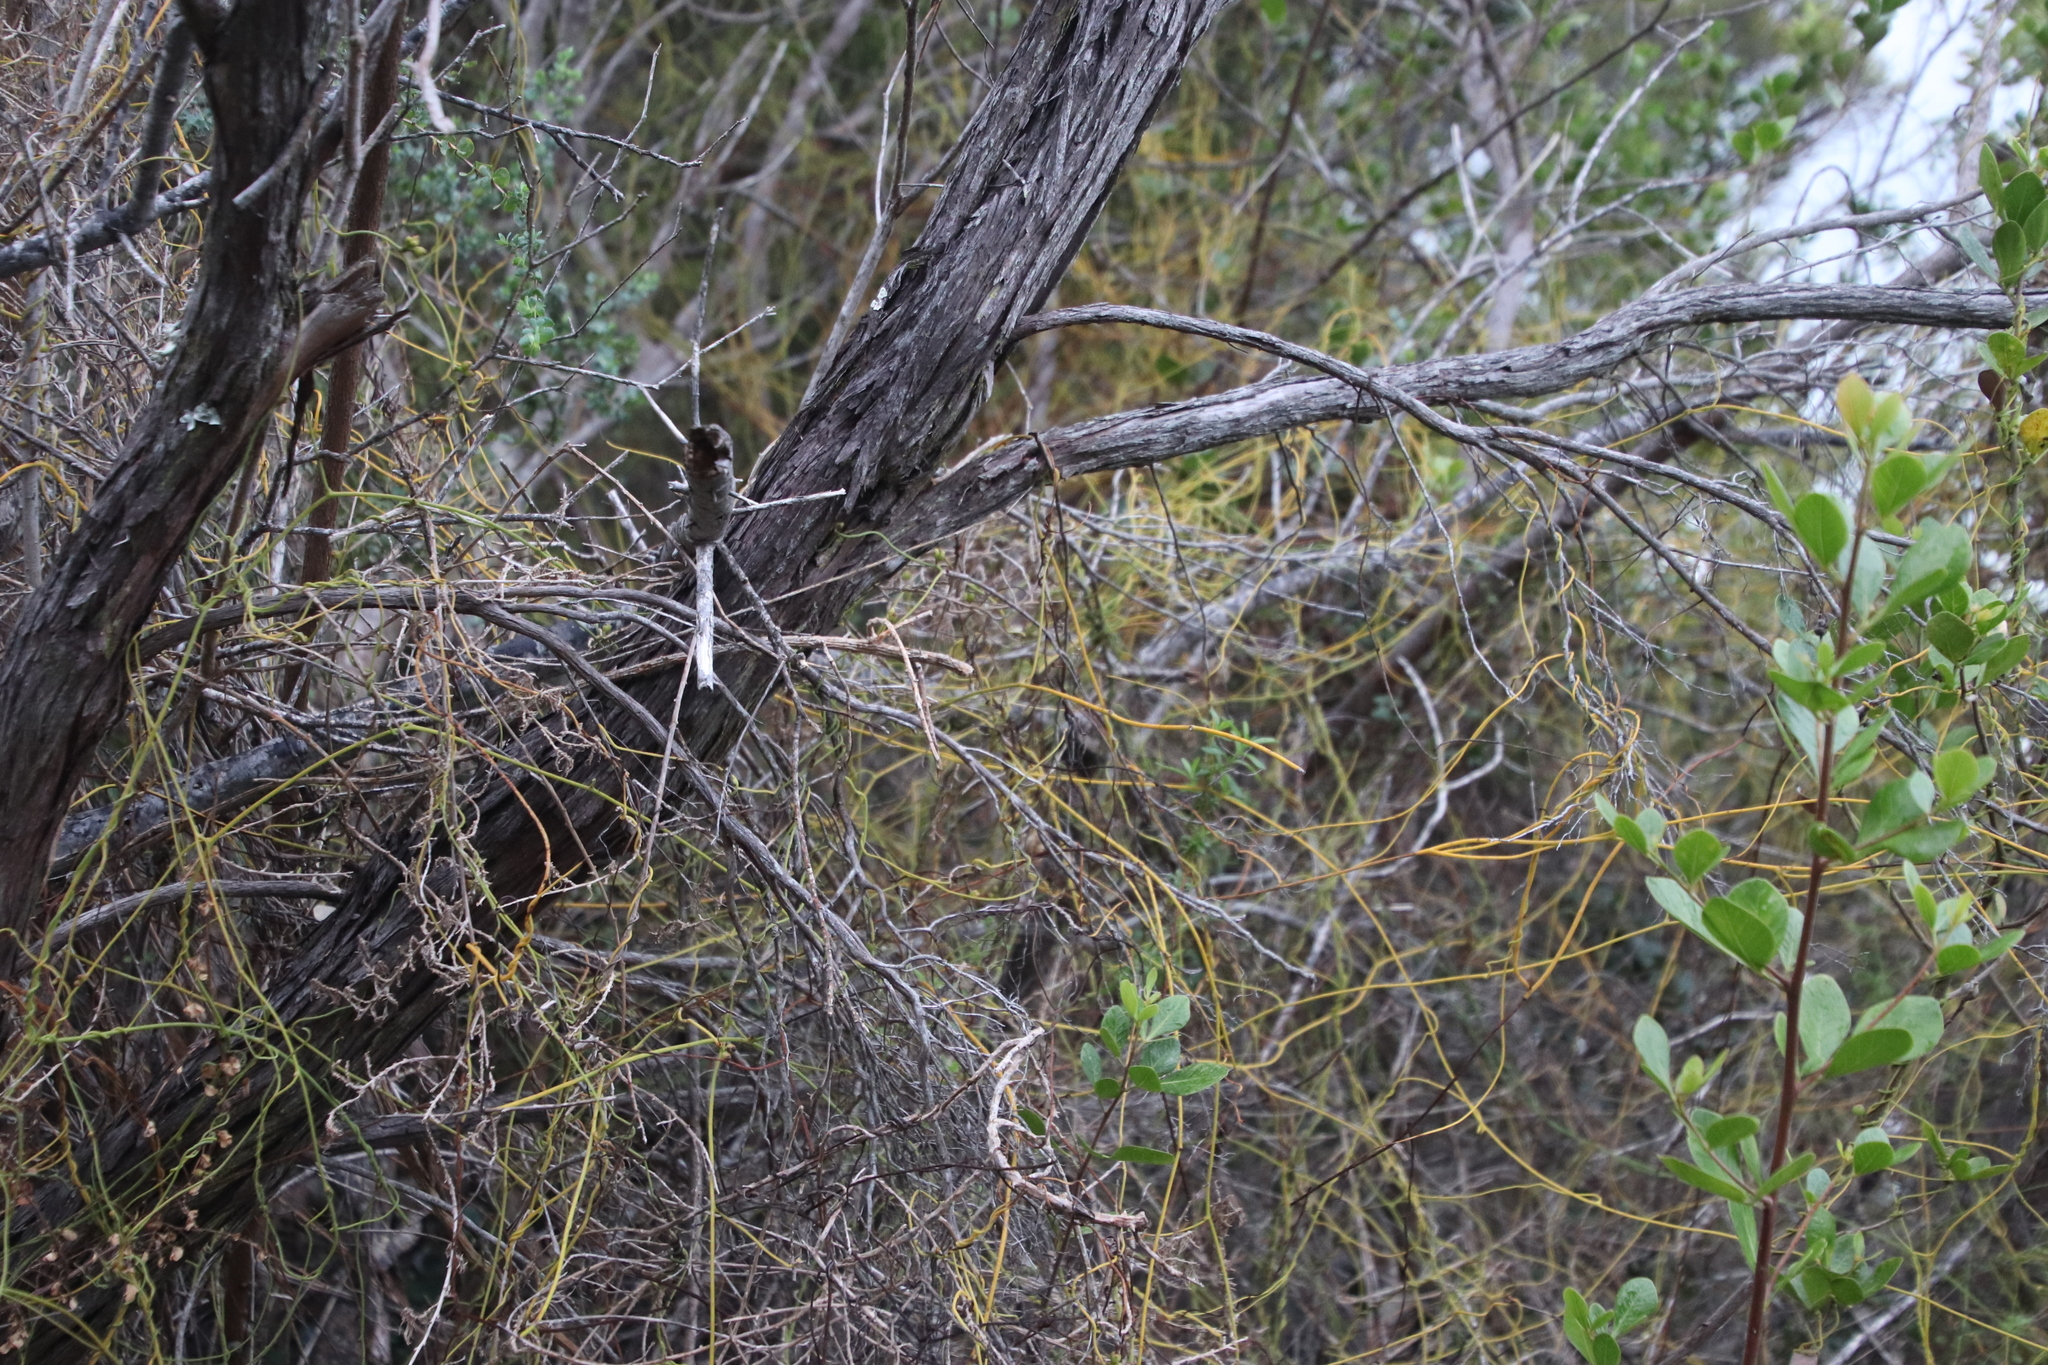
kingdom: Plantae
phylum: Tracheophyta
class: Magnoliopsida
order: Laurales
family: Lauraceae
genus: Cassytha
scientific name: Cassytha ciliolata
